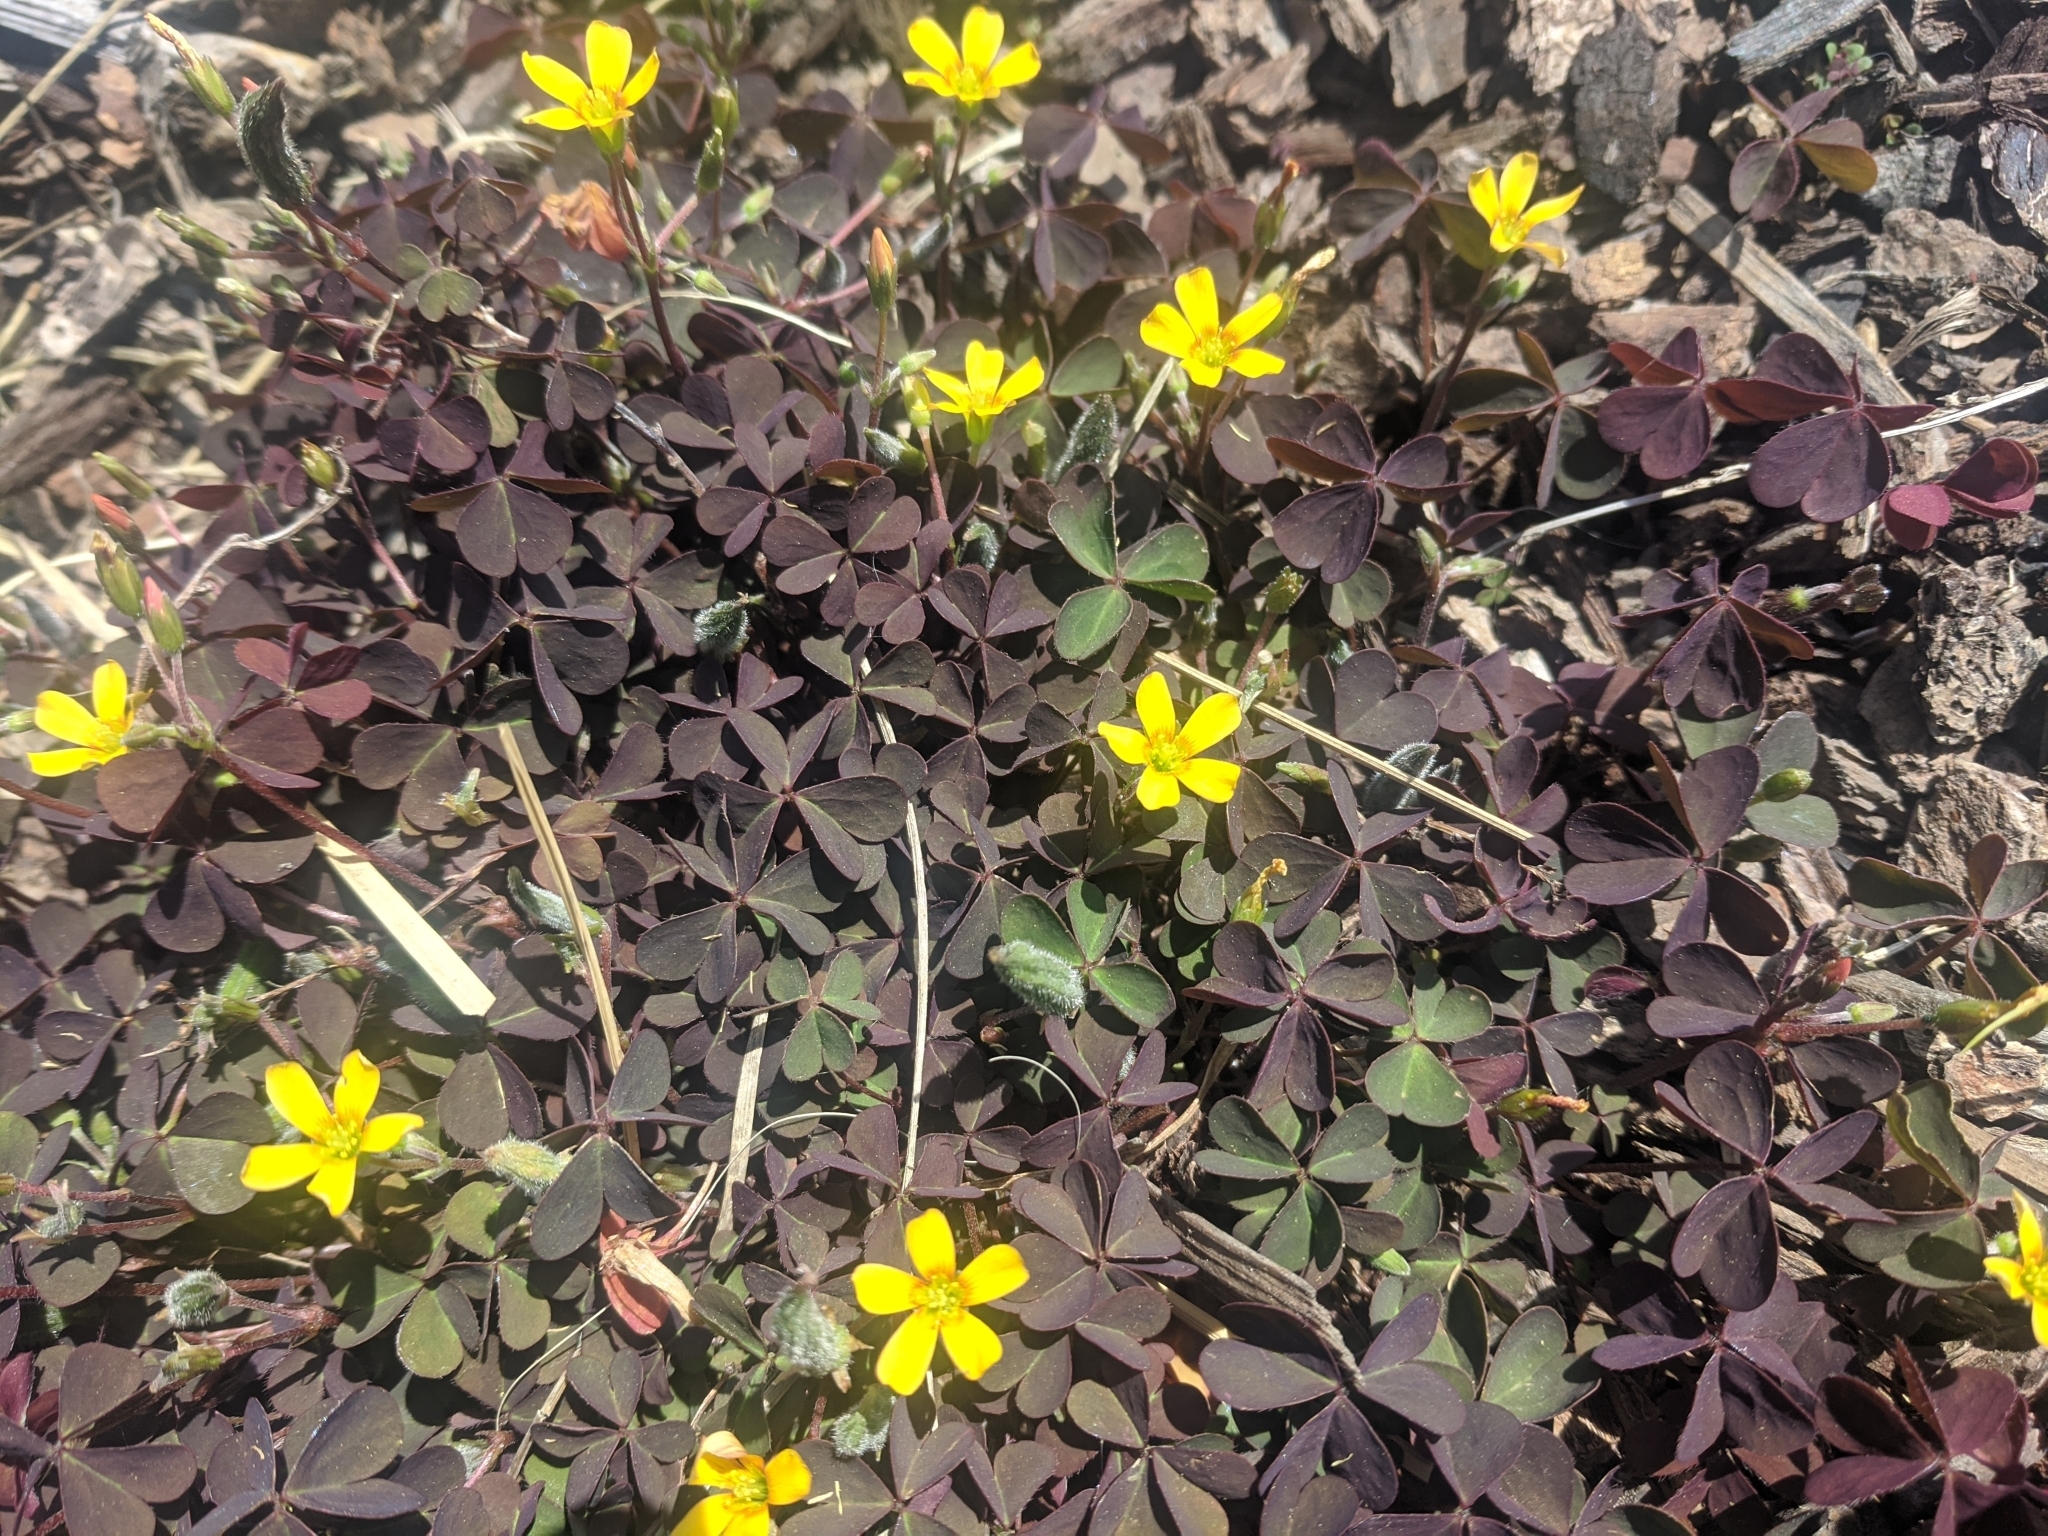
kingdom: Plantae
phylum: Tracheophyta
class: Magnoliopsida
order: Oxalidales
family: Oxalidaceae
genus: Oxalis
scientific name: Oxalis corniculata
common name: Procumbent yellow-sorrel
